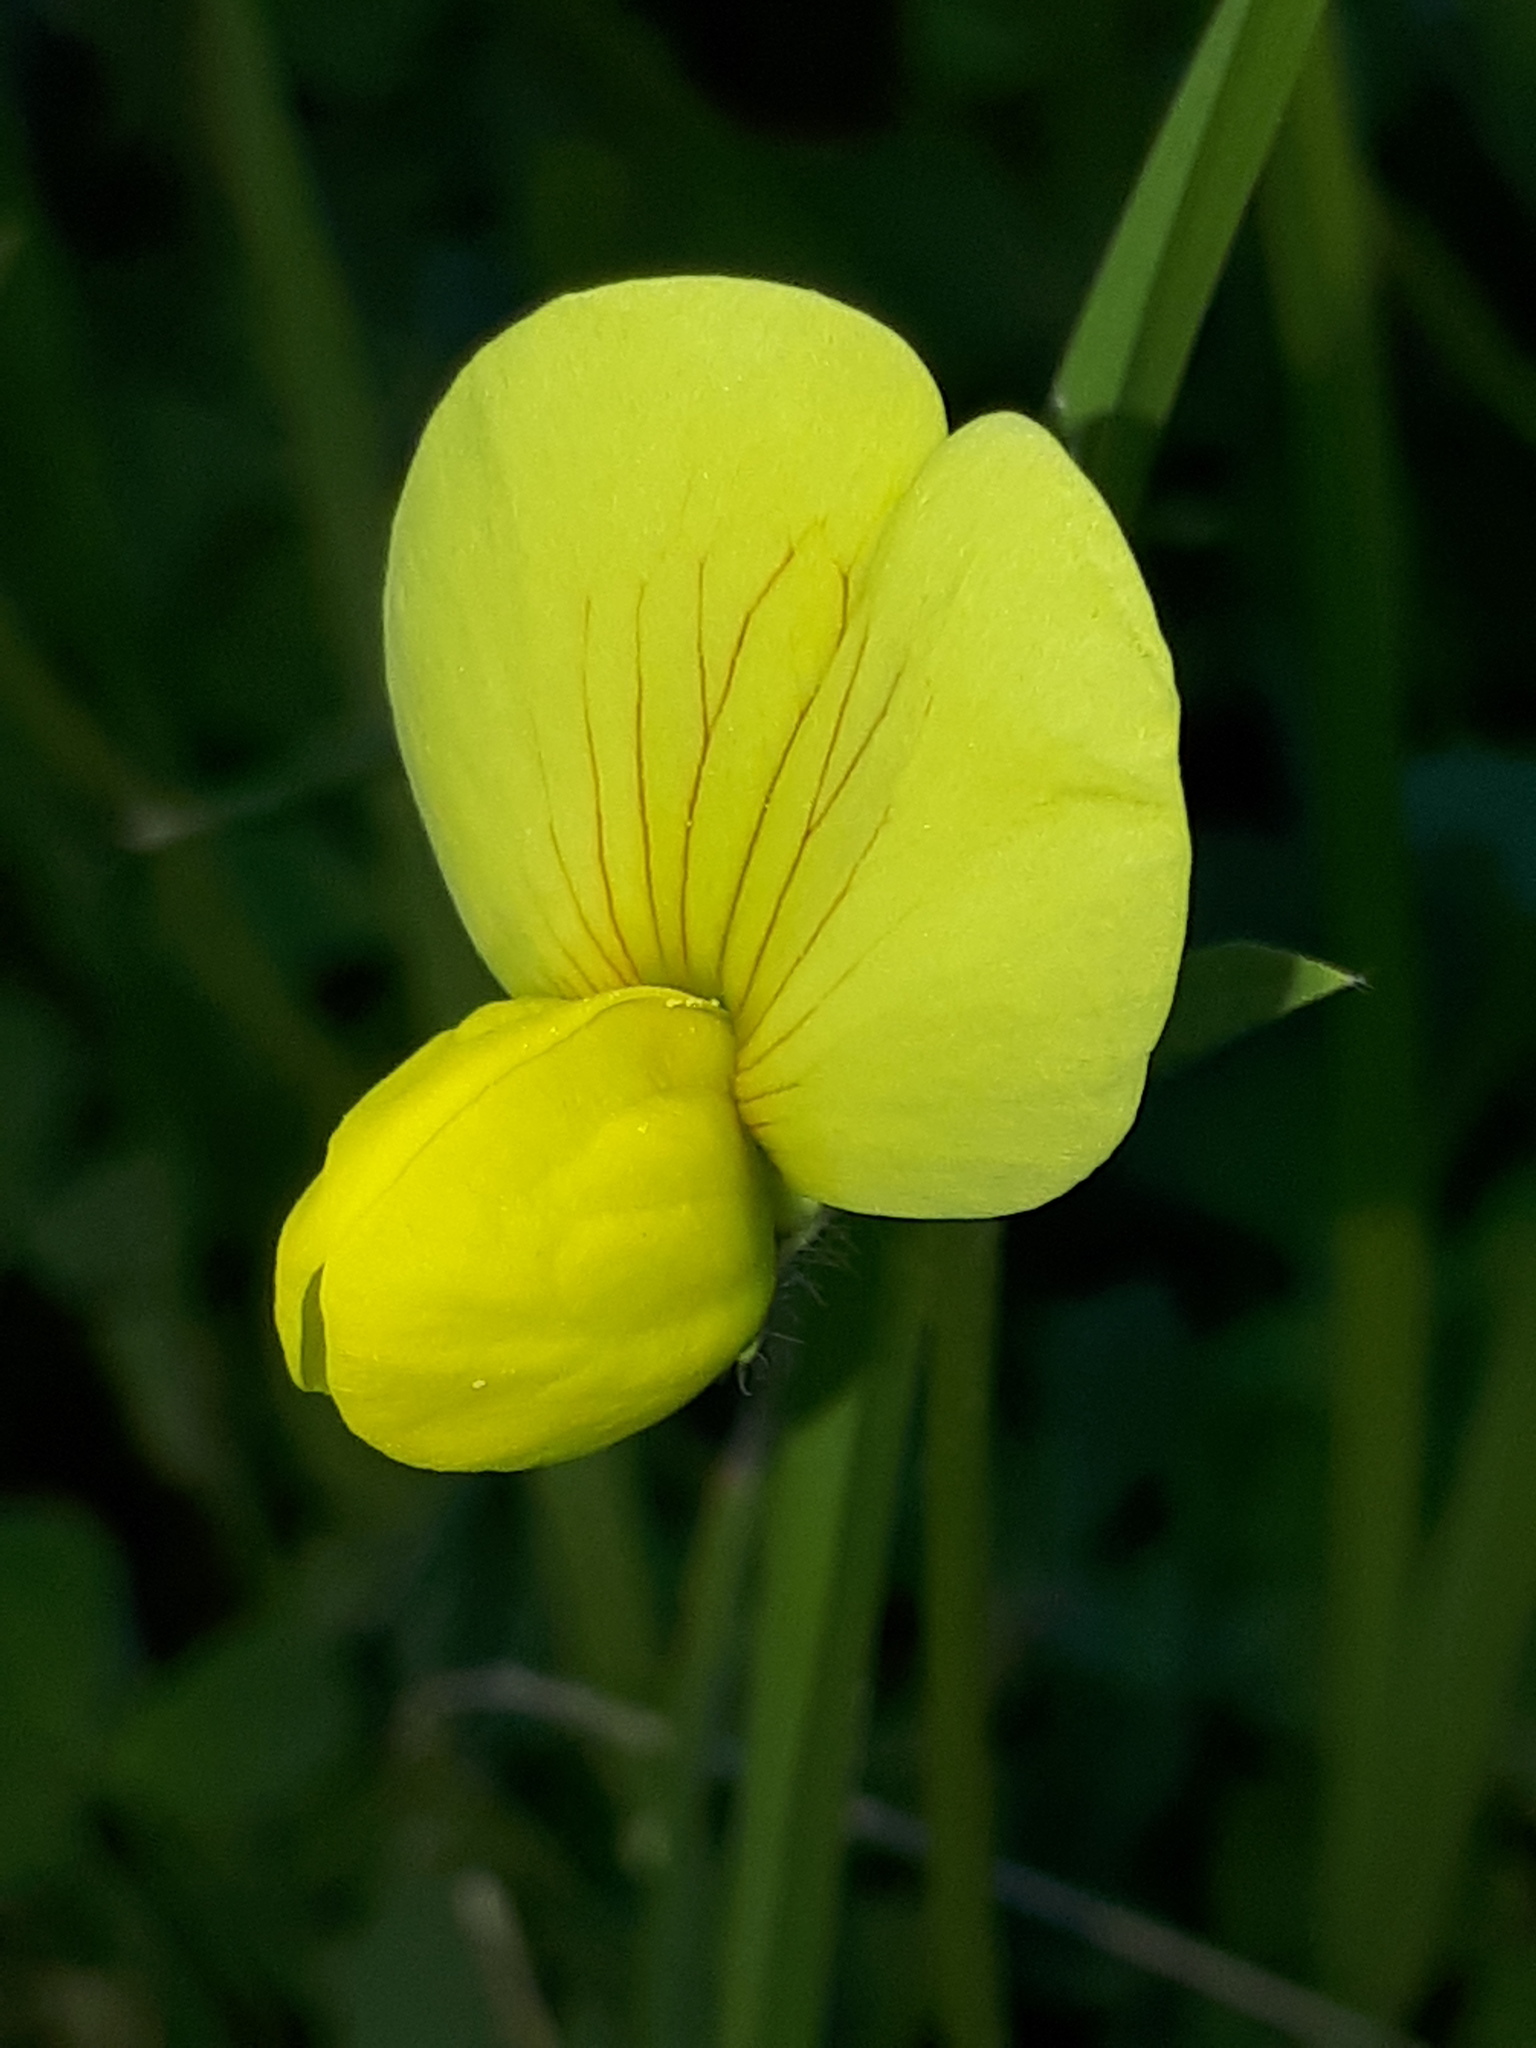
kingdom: Plantae
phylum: Tracheophyta
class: Magnoliopsida
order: Fabales
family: Fabaceae
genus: Lotus
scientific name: Lotus corniculatus
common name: Common bird's-foot-trefoil
